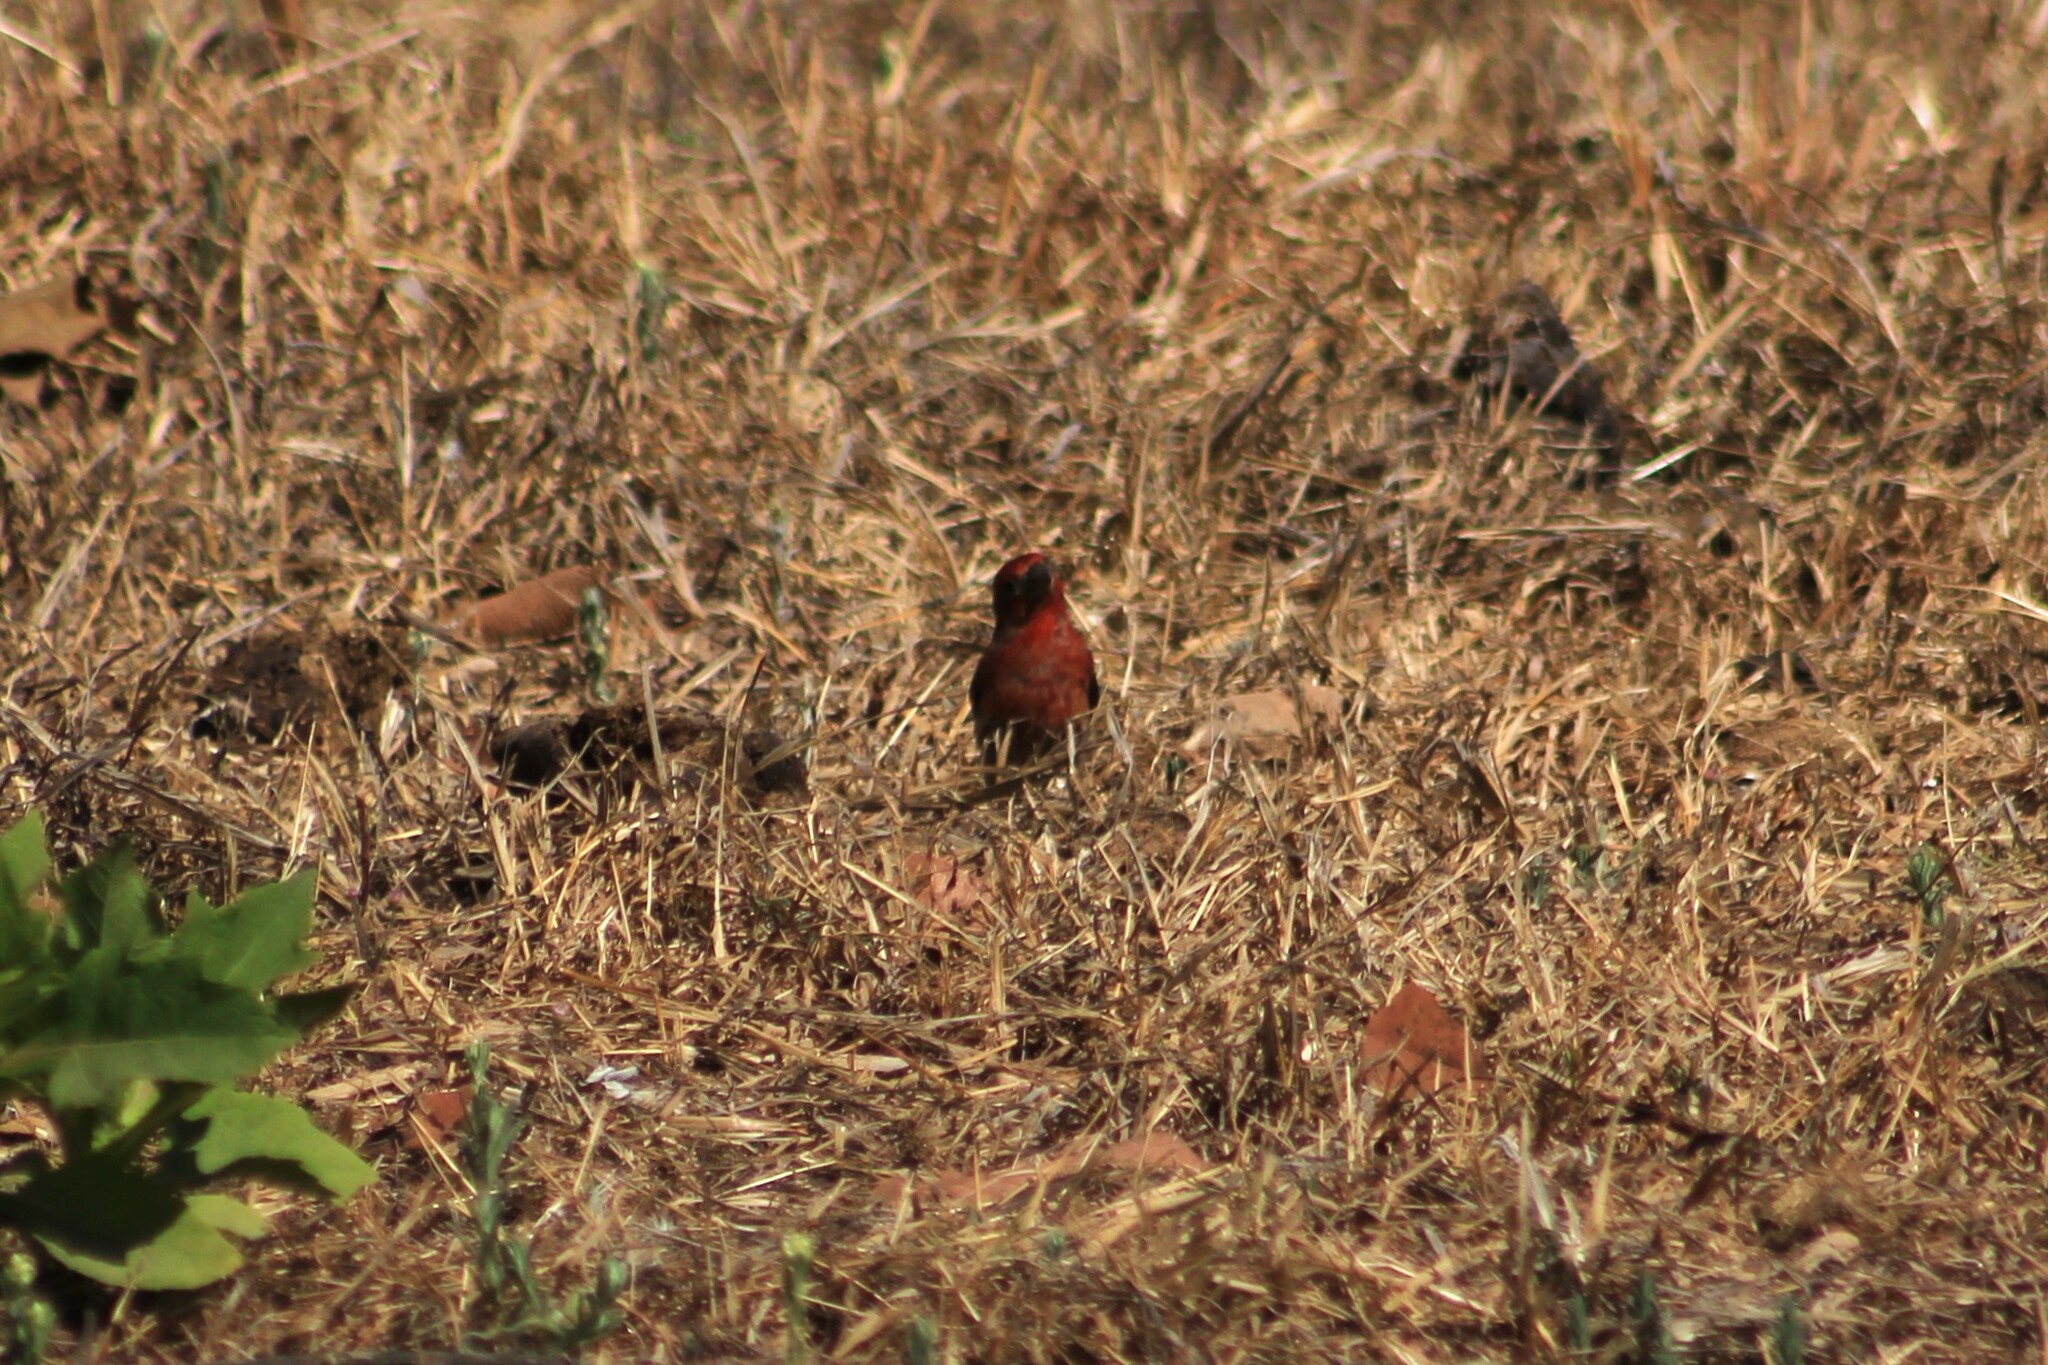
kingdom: Animalia
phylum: Chordata
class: Aves
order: Passeriformes
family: Fringillidae
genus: Haemorhous
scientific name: Haemorhous mexicanus
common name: House finch
